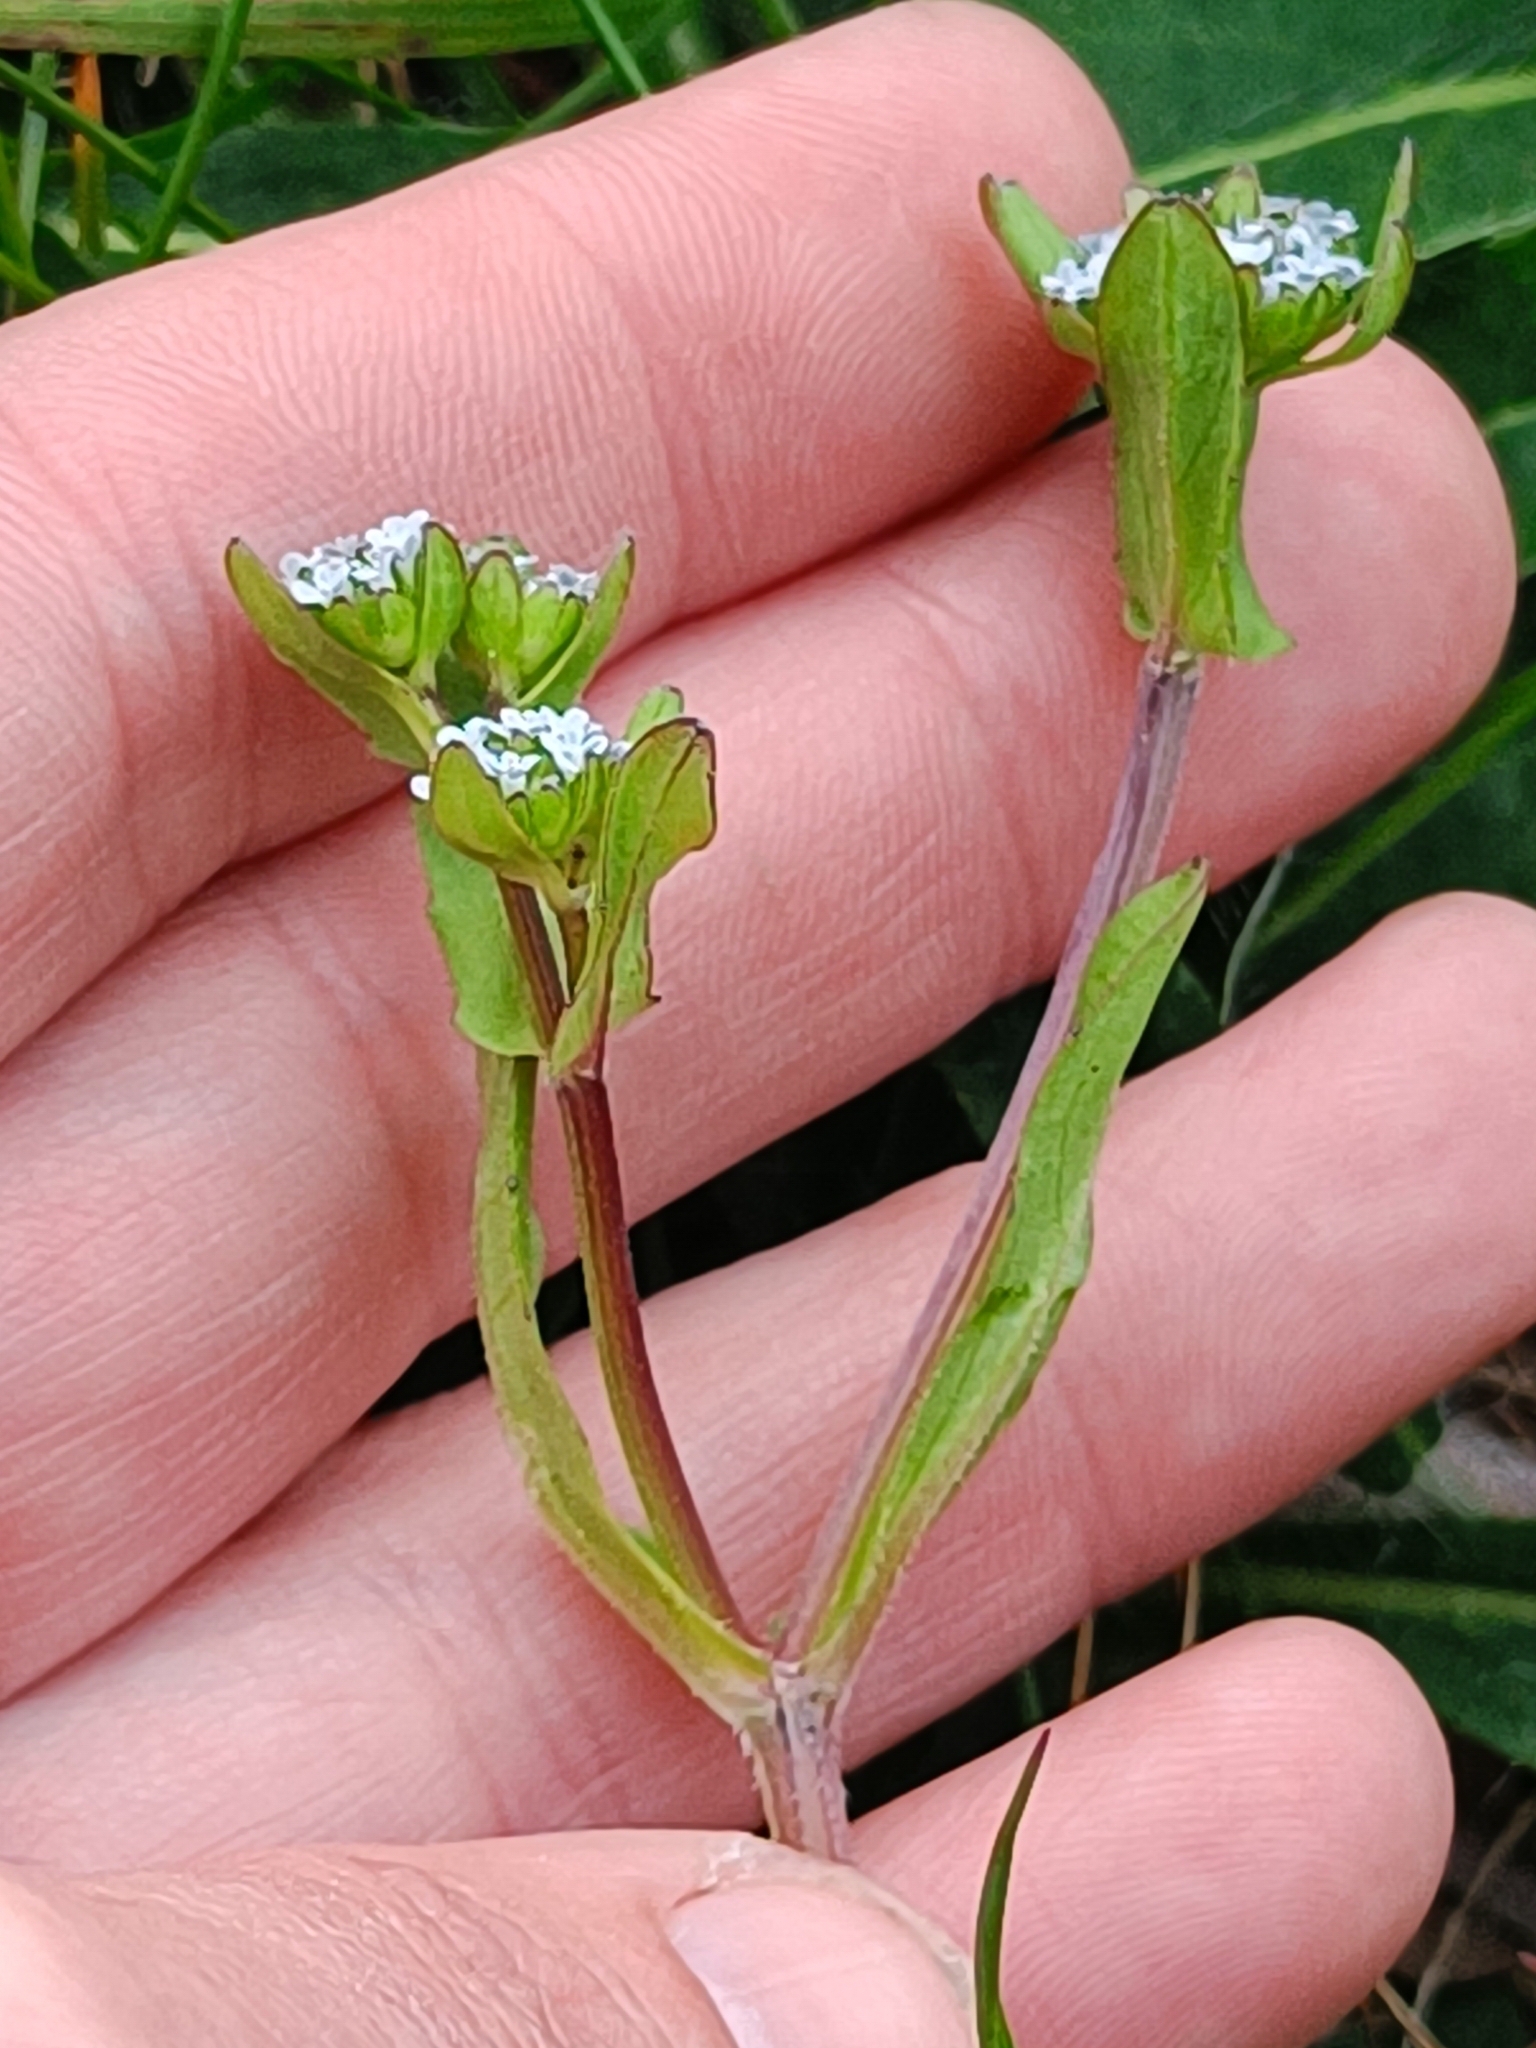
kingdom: Plantae
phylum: Tracheophyta
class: Magnoliopsida
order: Dipsacales
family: Caprifoliaceae
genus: Valerianella
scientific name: Valerianella locusta
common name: Common cornsalad
